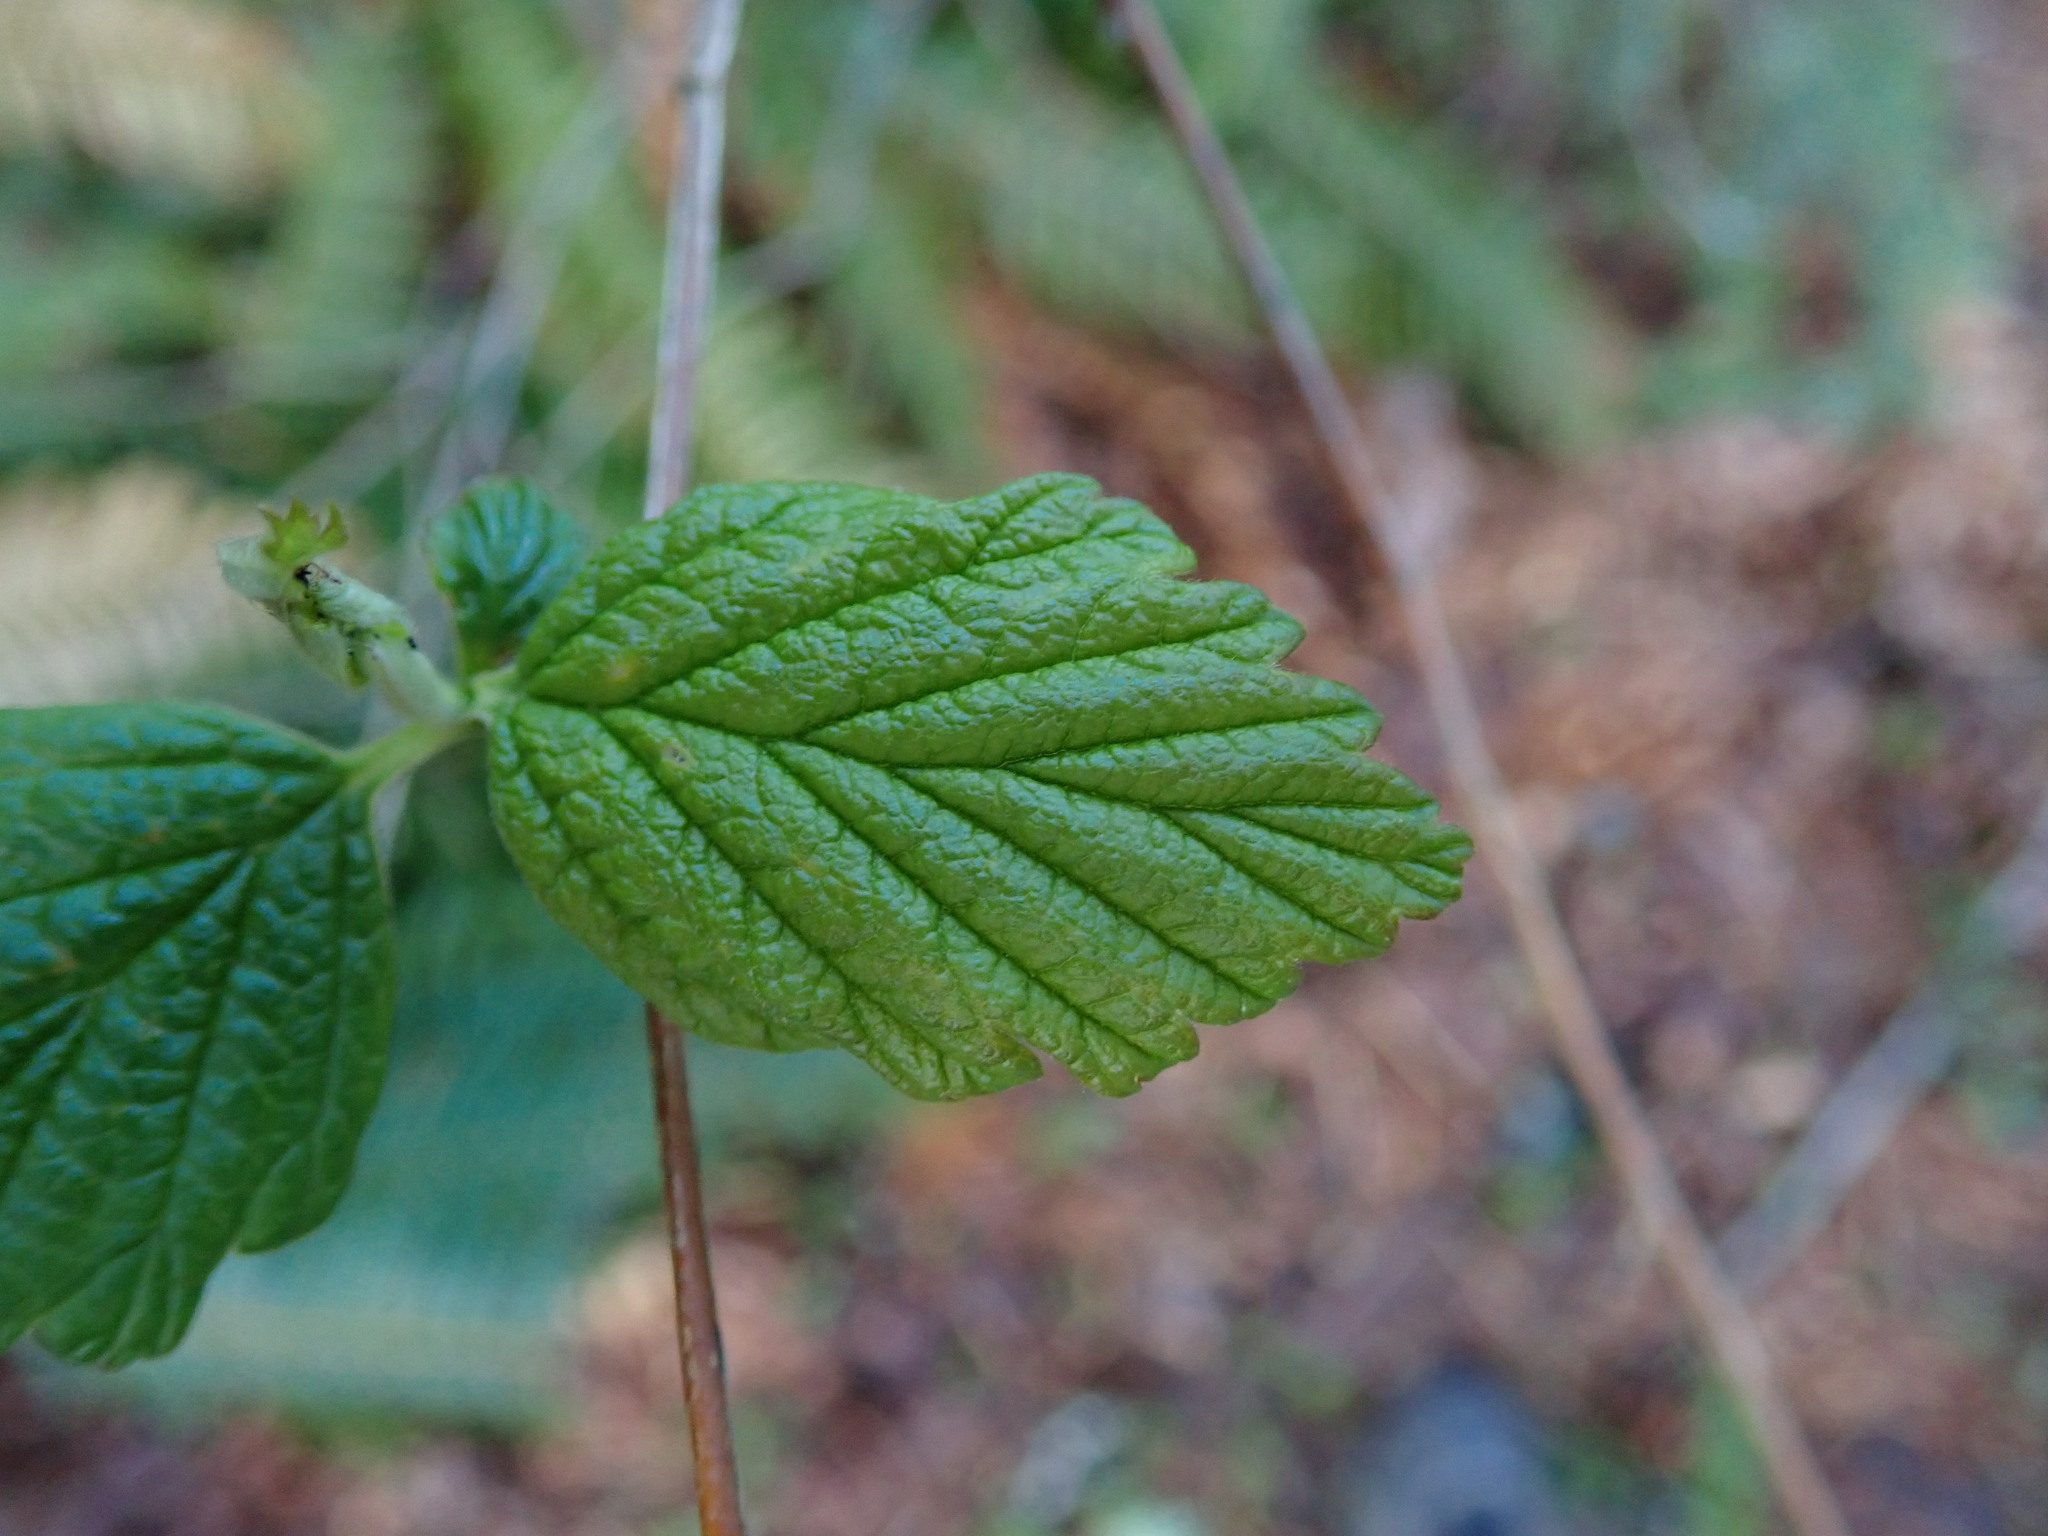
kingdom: Plantae
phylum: Tracheophyta
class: Magnoliopsida
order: Rosales
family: Rosaceae
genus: Holodiscus
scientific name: Holodiscus discolor
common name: Oceanspray
